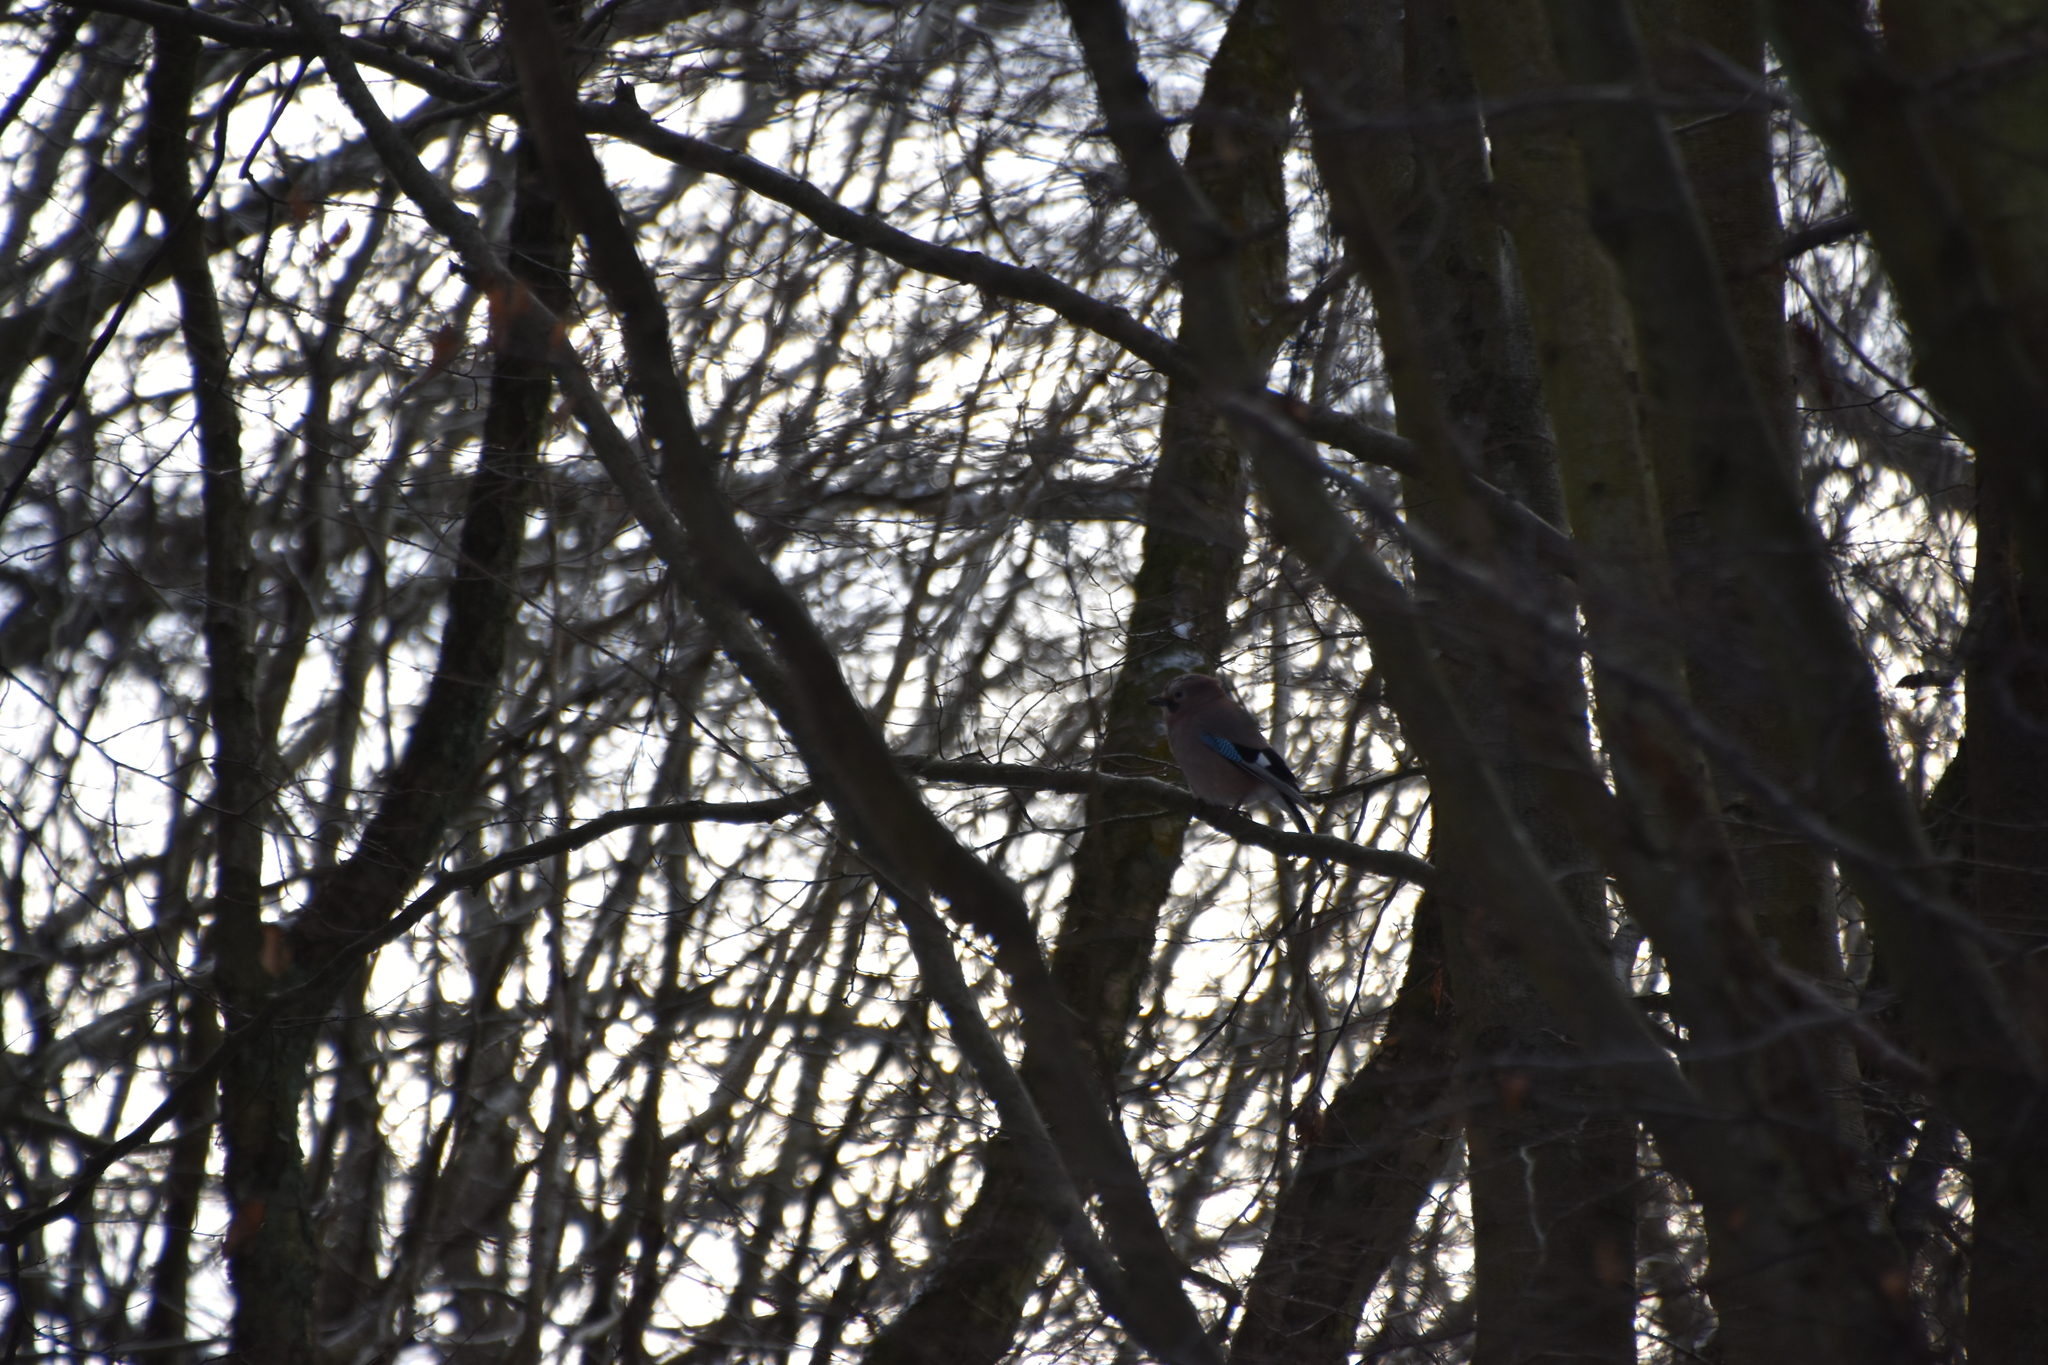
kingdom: Animalia
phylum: Chordata
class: Aves
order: Passeriformes
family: Corvidae
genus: Garrulus
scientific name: Garrulus glandarius
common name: Eurasian jay
